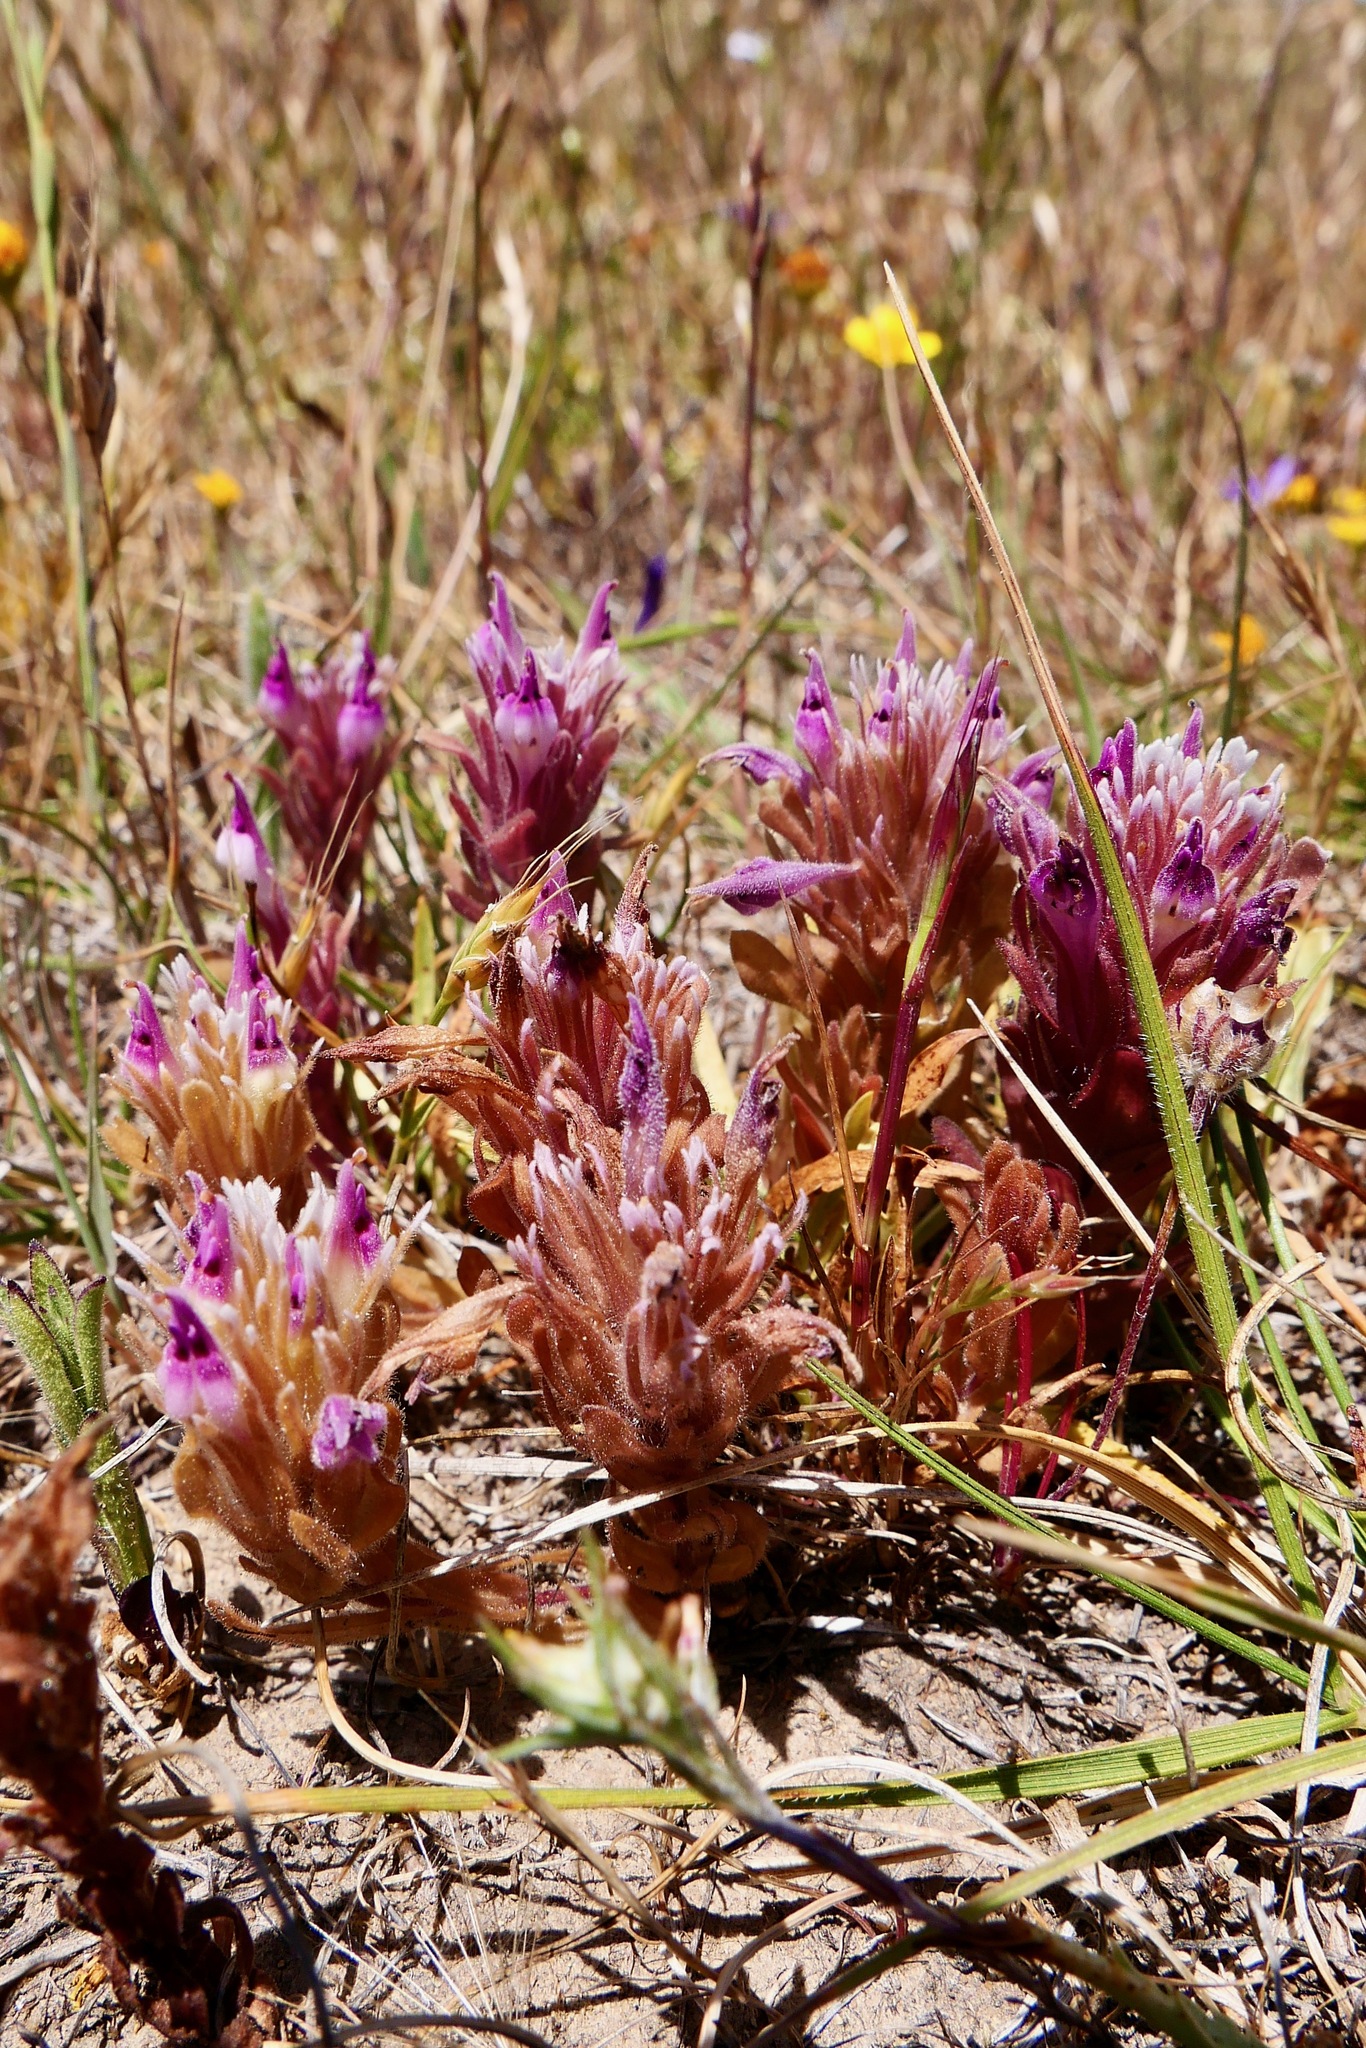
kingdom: Plantae
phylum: Tracheophyta
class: Magnoliopsida
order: Lamiales
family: Orobanchaceae
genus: Castilleja
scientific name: Castilleja ambigua
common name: Johnny-nip
